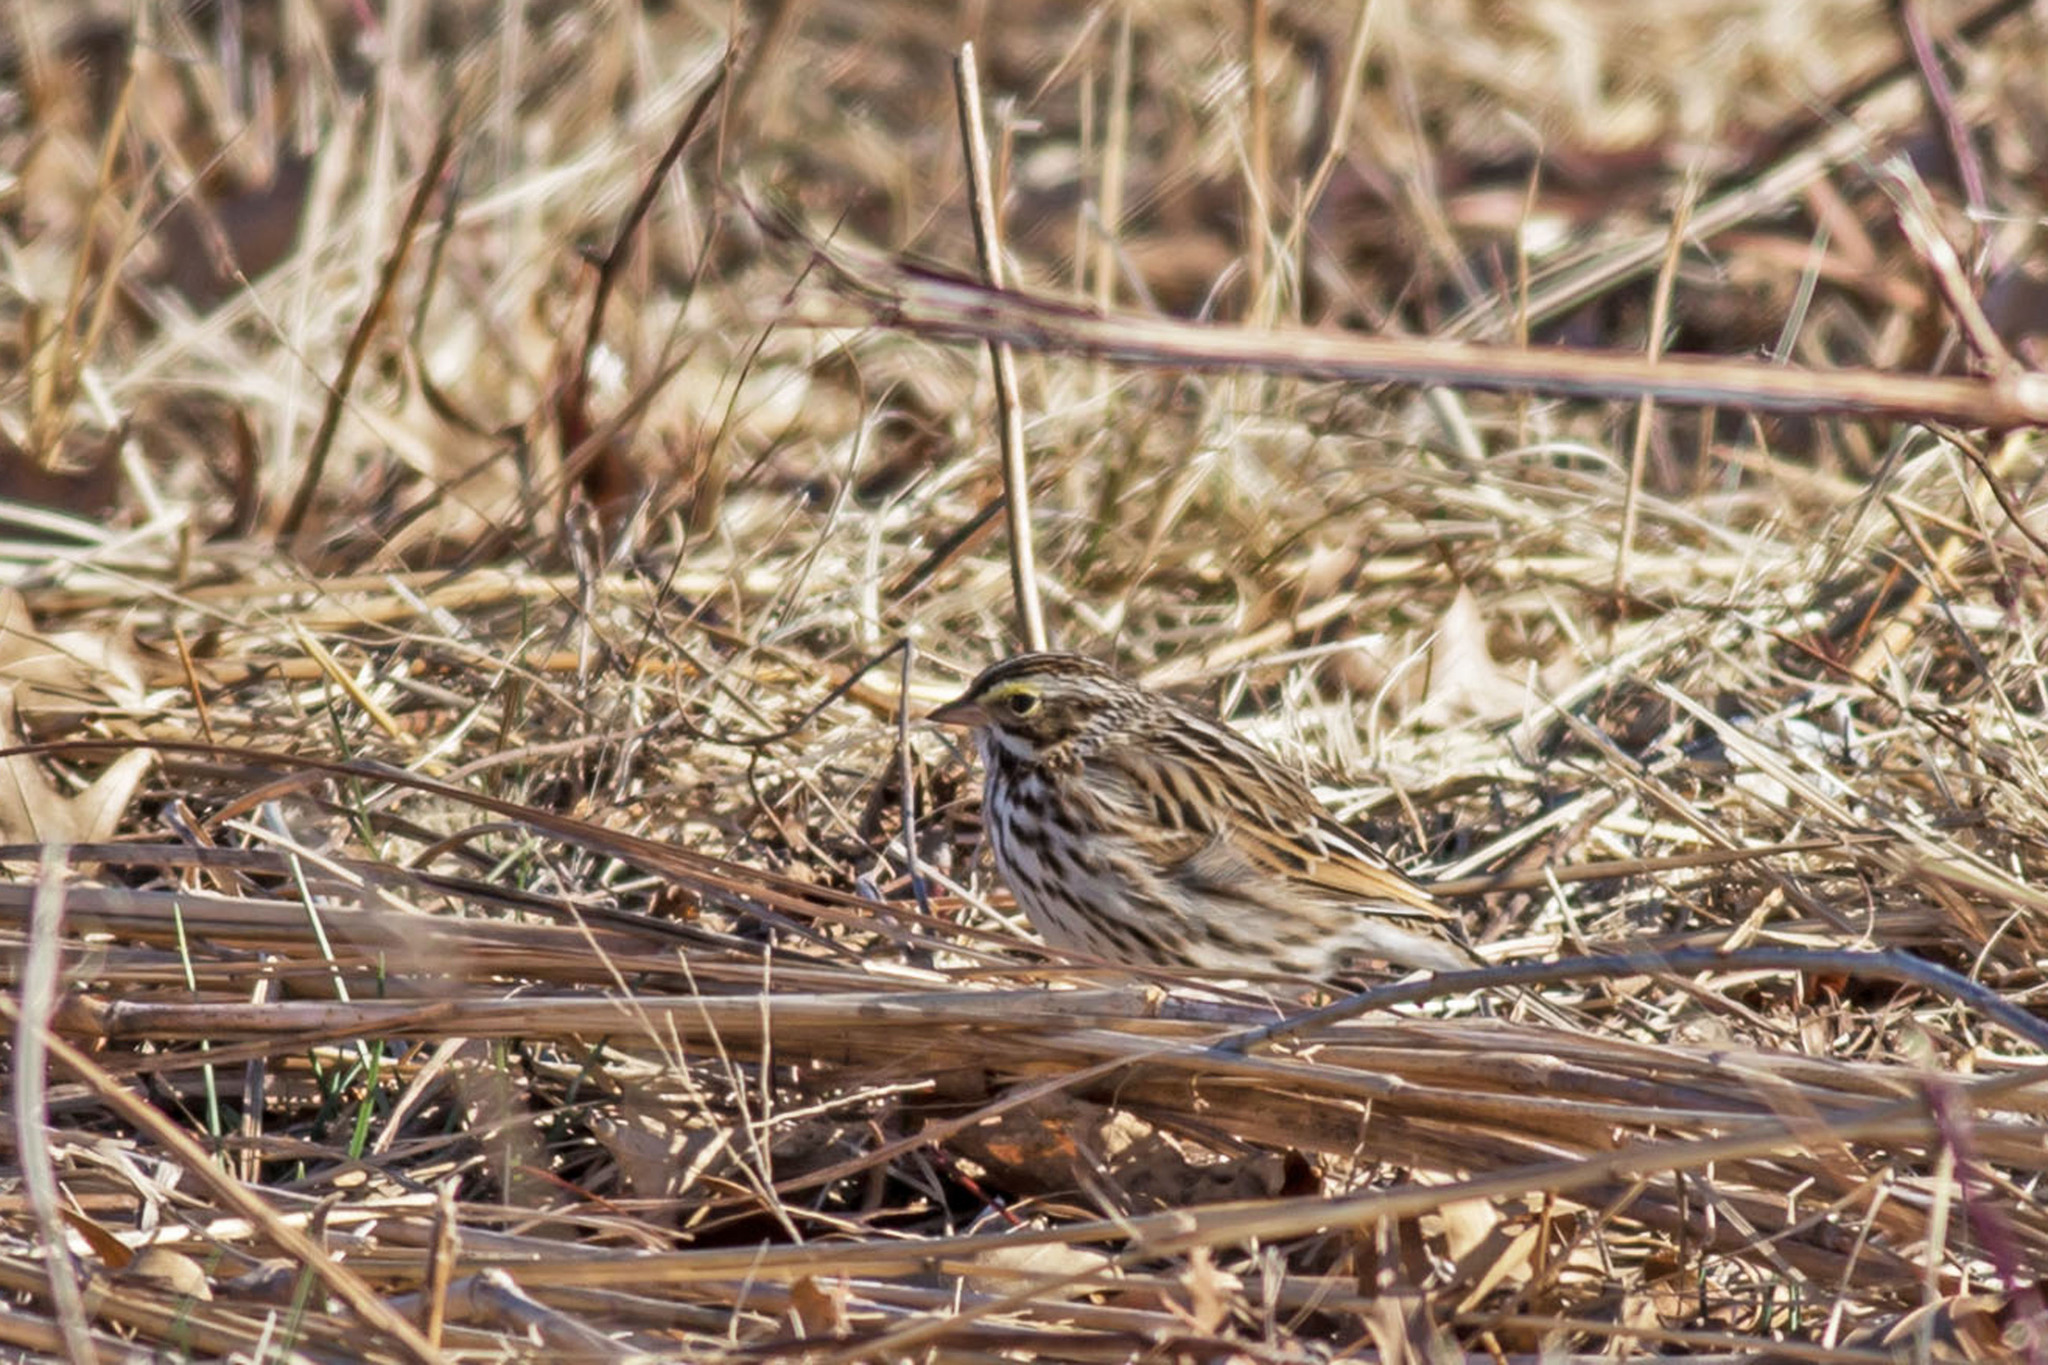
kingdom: Animalia
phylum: Chordata
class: Aves
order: Passeriformes
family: Passerellidae
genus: Passerculus
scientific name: Passerculus sandwichensis
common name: Savannah sparrow
